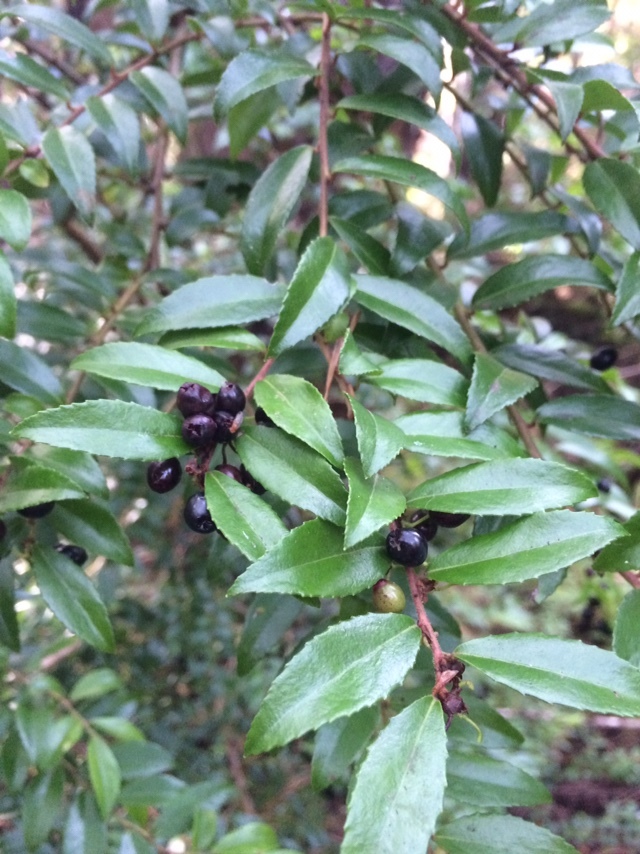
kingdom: Plantae
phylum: Tracheophyta
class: Magnoliopsida
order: Ericales
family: Ericaceae
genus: Vaccinium
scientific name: Vaccinium ovatum
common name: California-huckleberry
